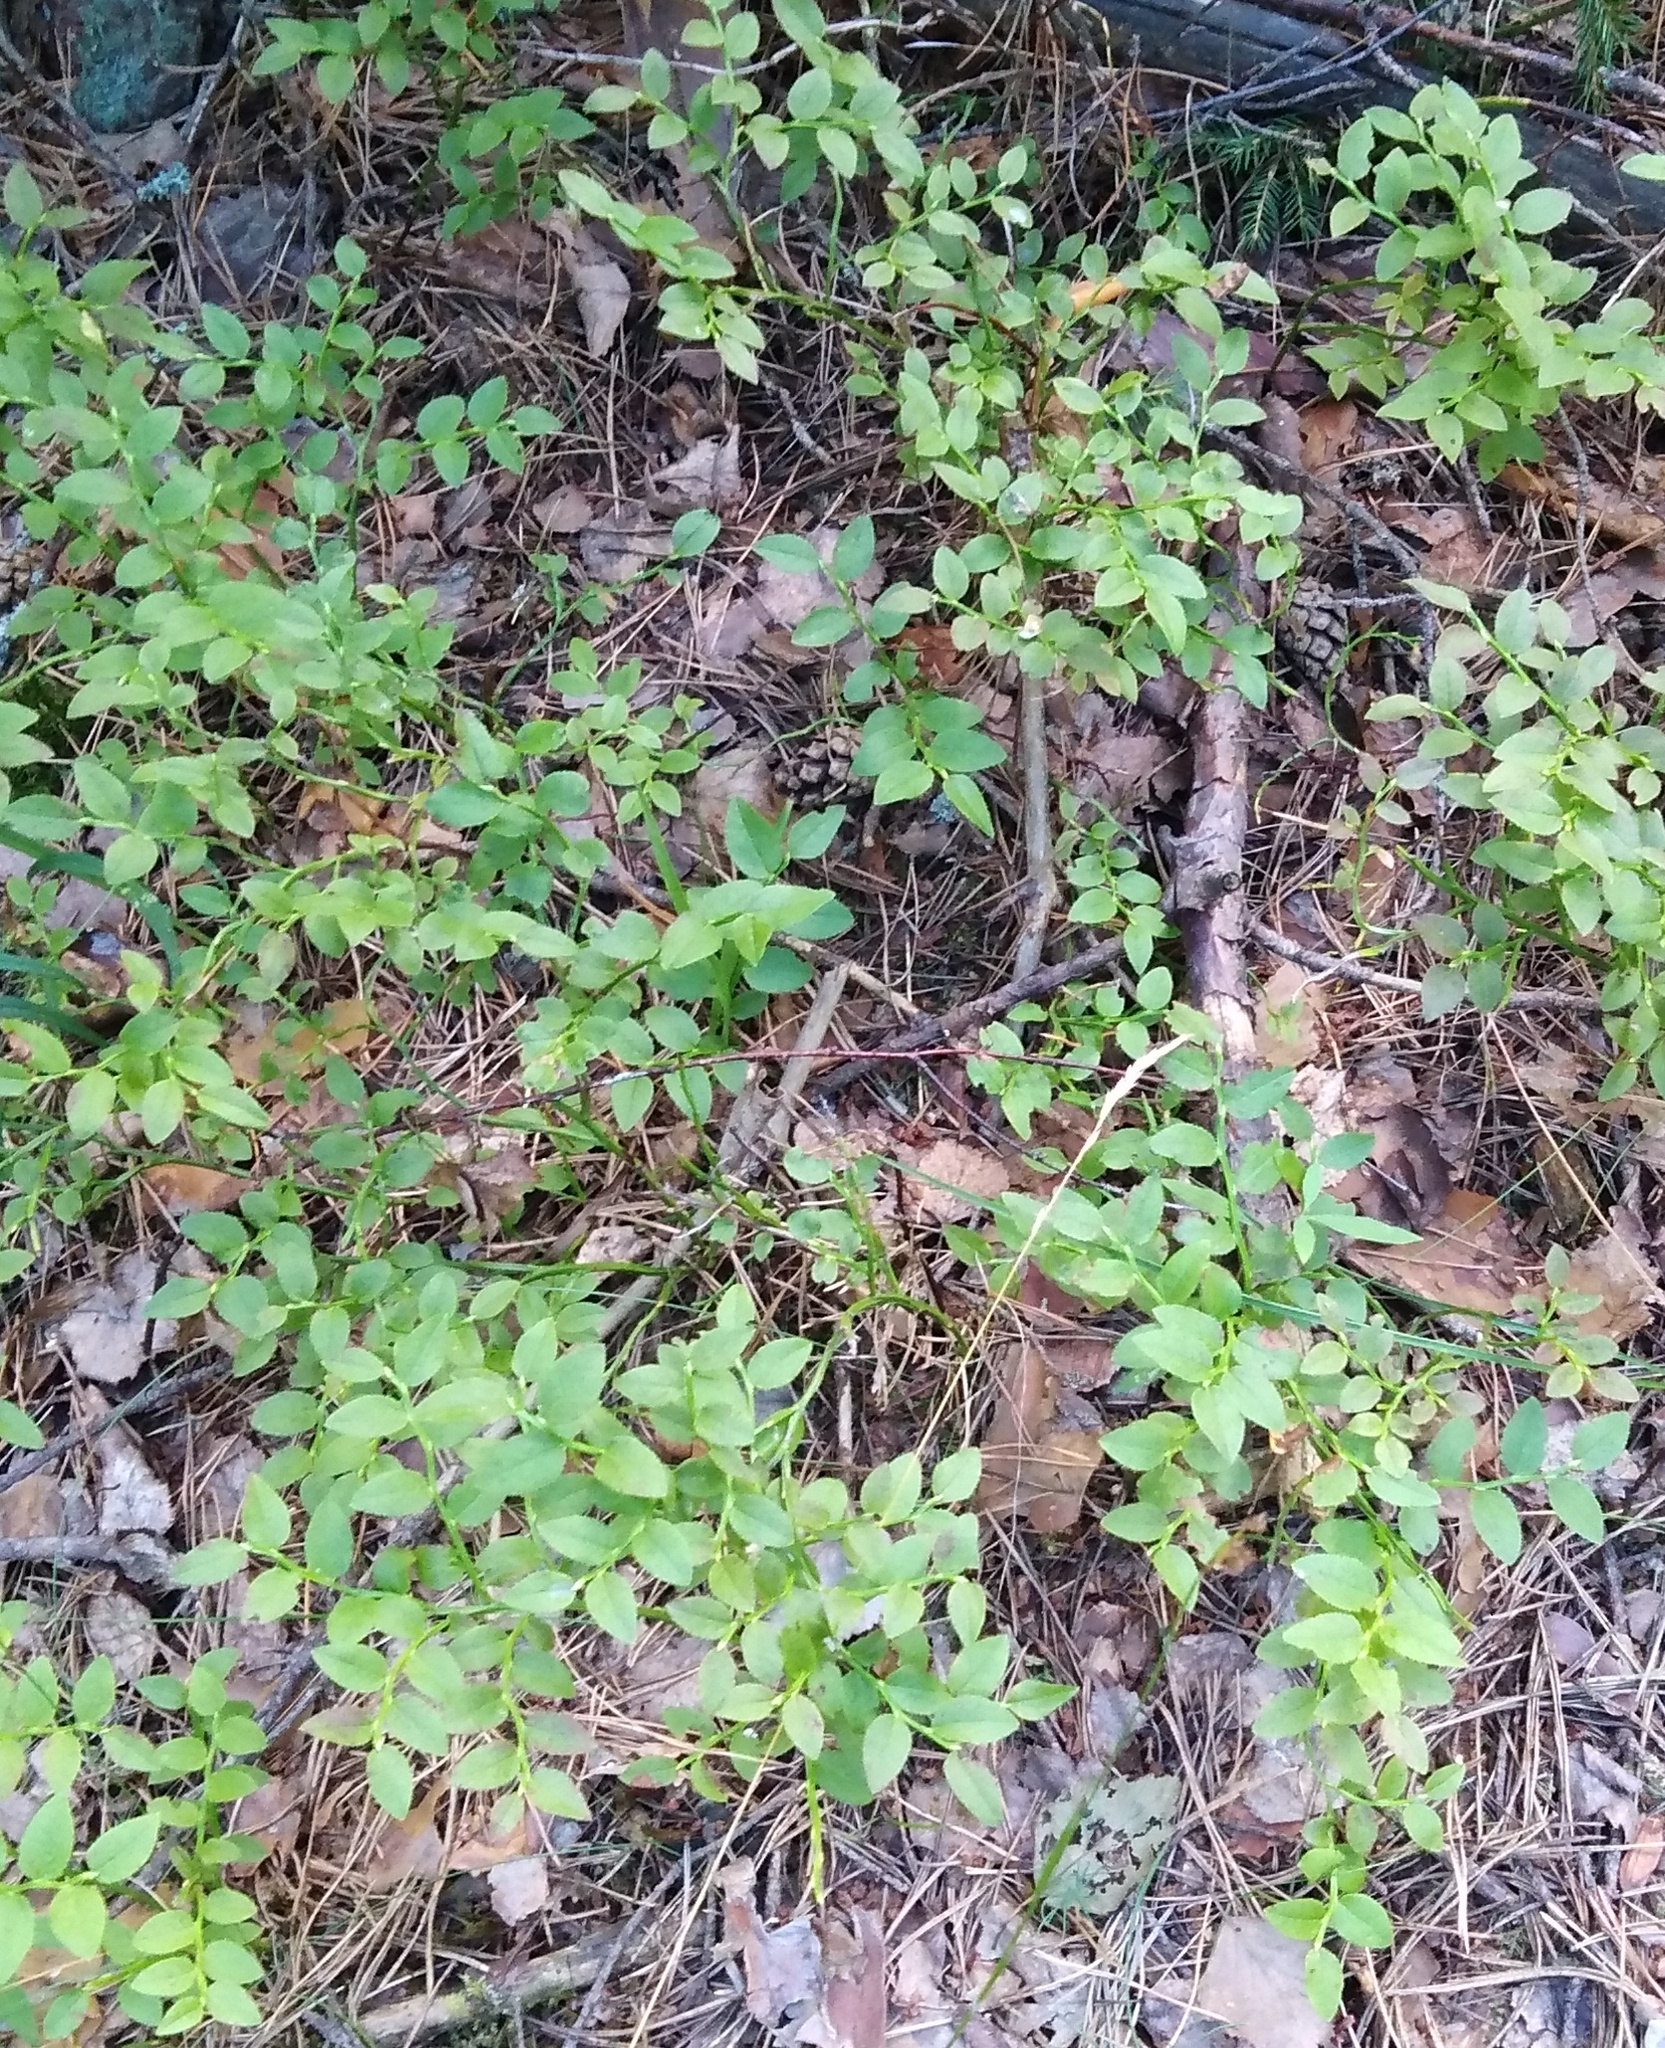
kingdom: Plantae
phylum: Tracheophyta
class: Magnoliopsida
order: Ericales
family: Ericaceae
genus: Vaccinium
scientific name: Vaccinium myrtillus
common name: Bilberry
